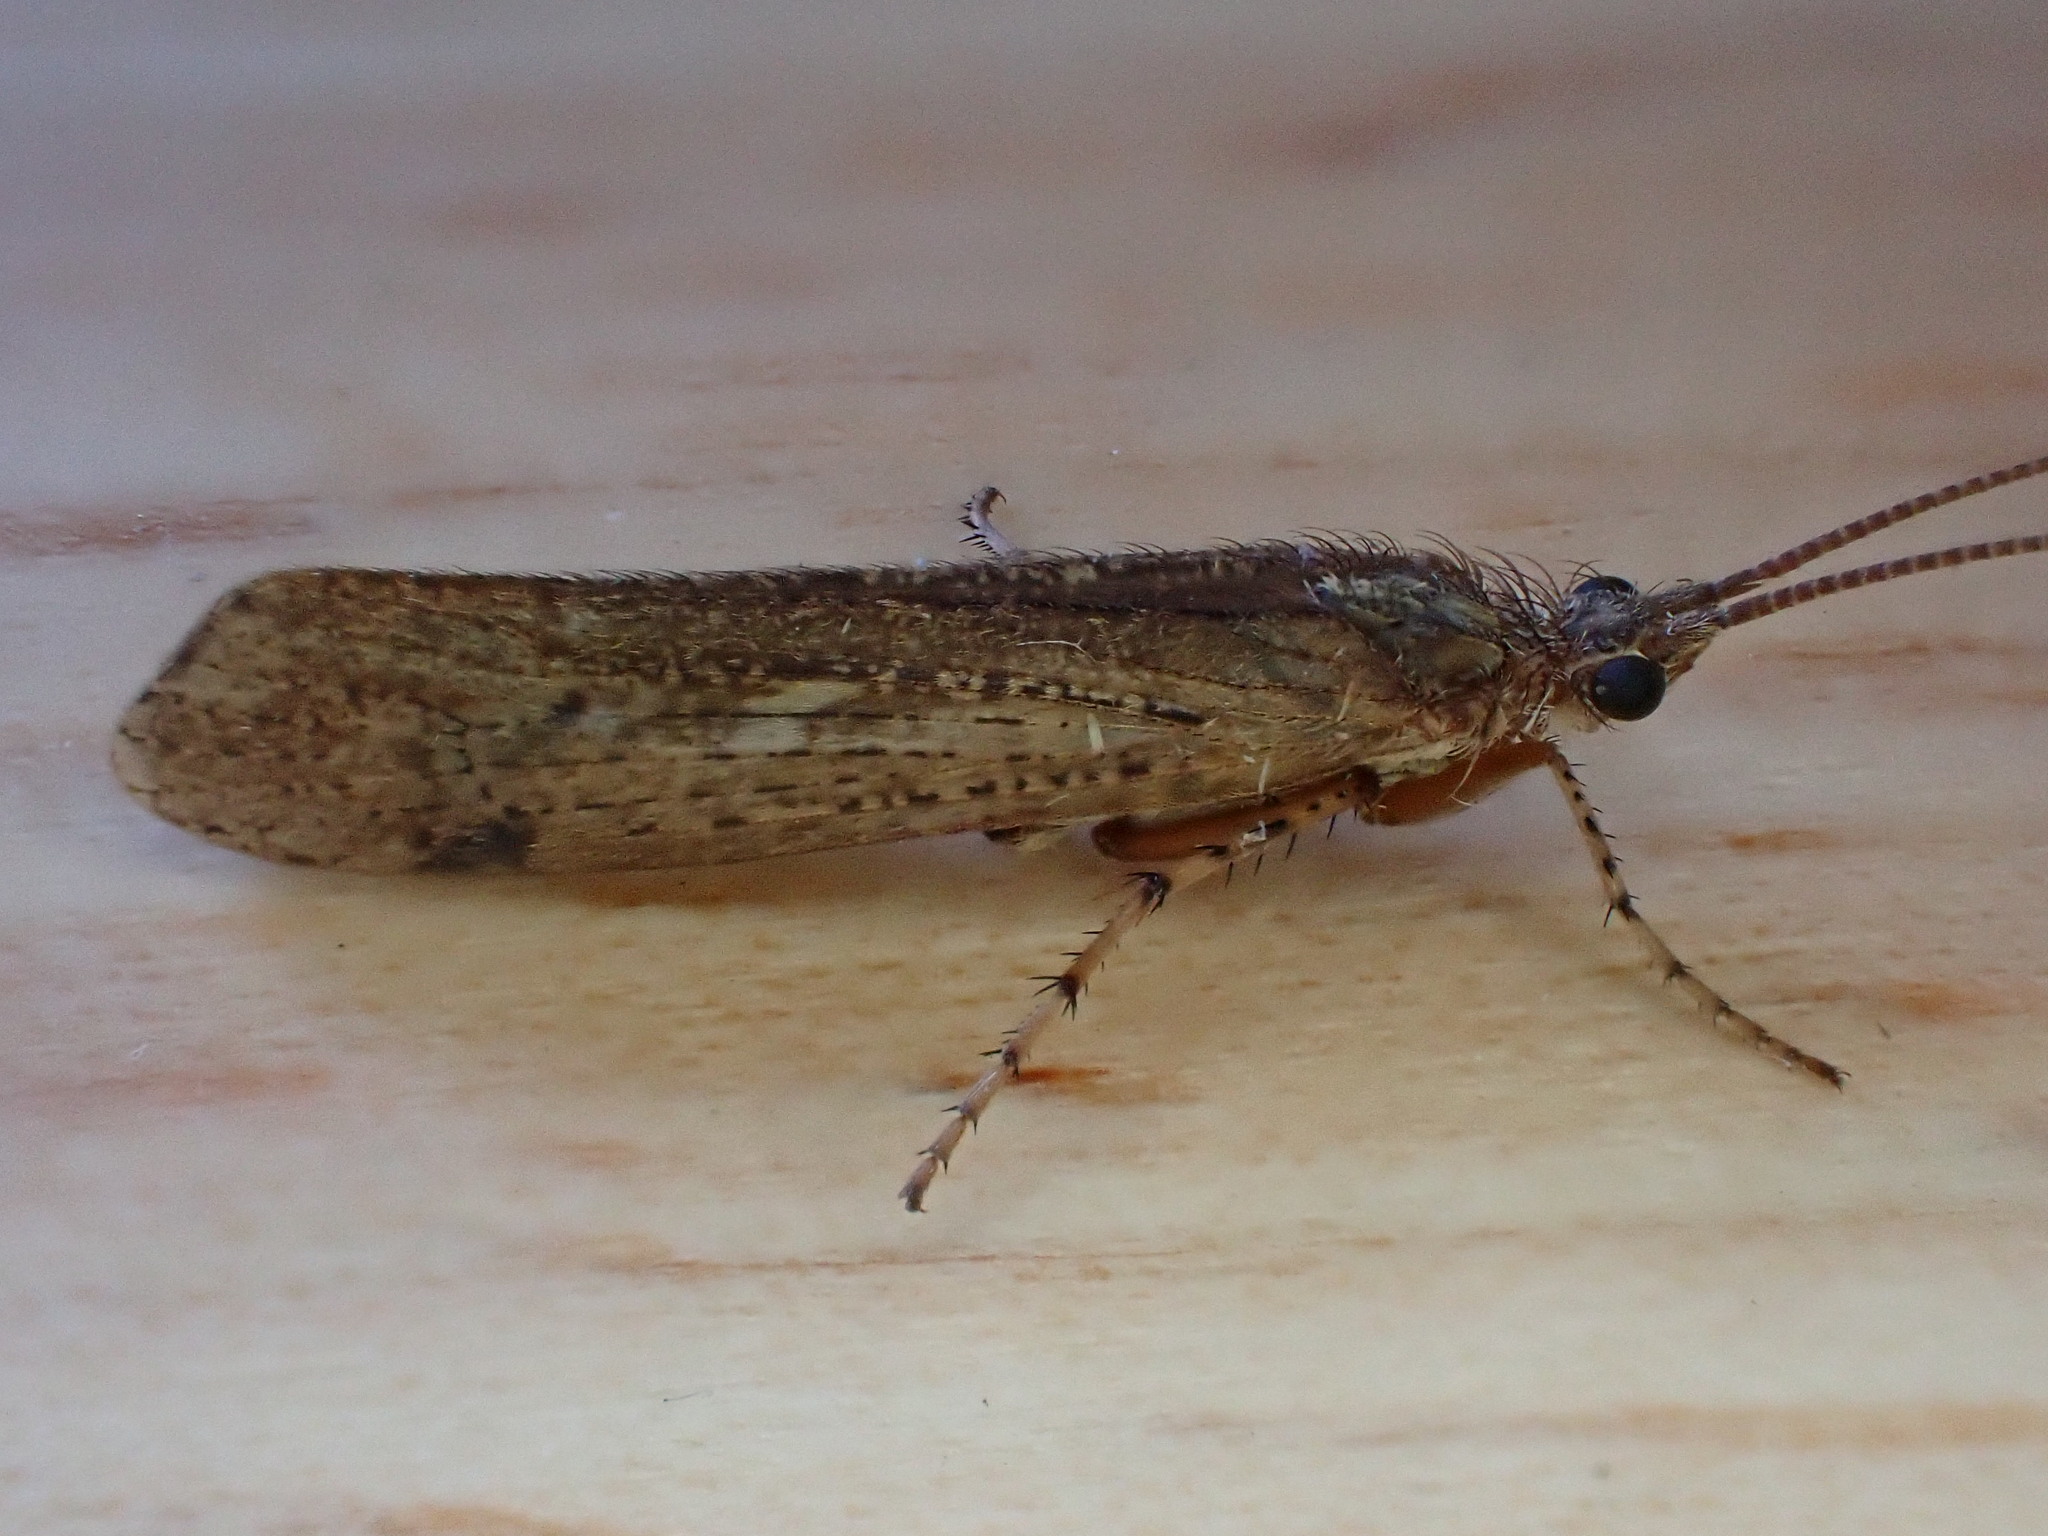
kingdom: Animalia
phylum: Arthropoda
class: Insecta
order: Trichoptera
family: Limnephilidae
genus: Limnephilus
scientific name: Limnephilus affinis
